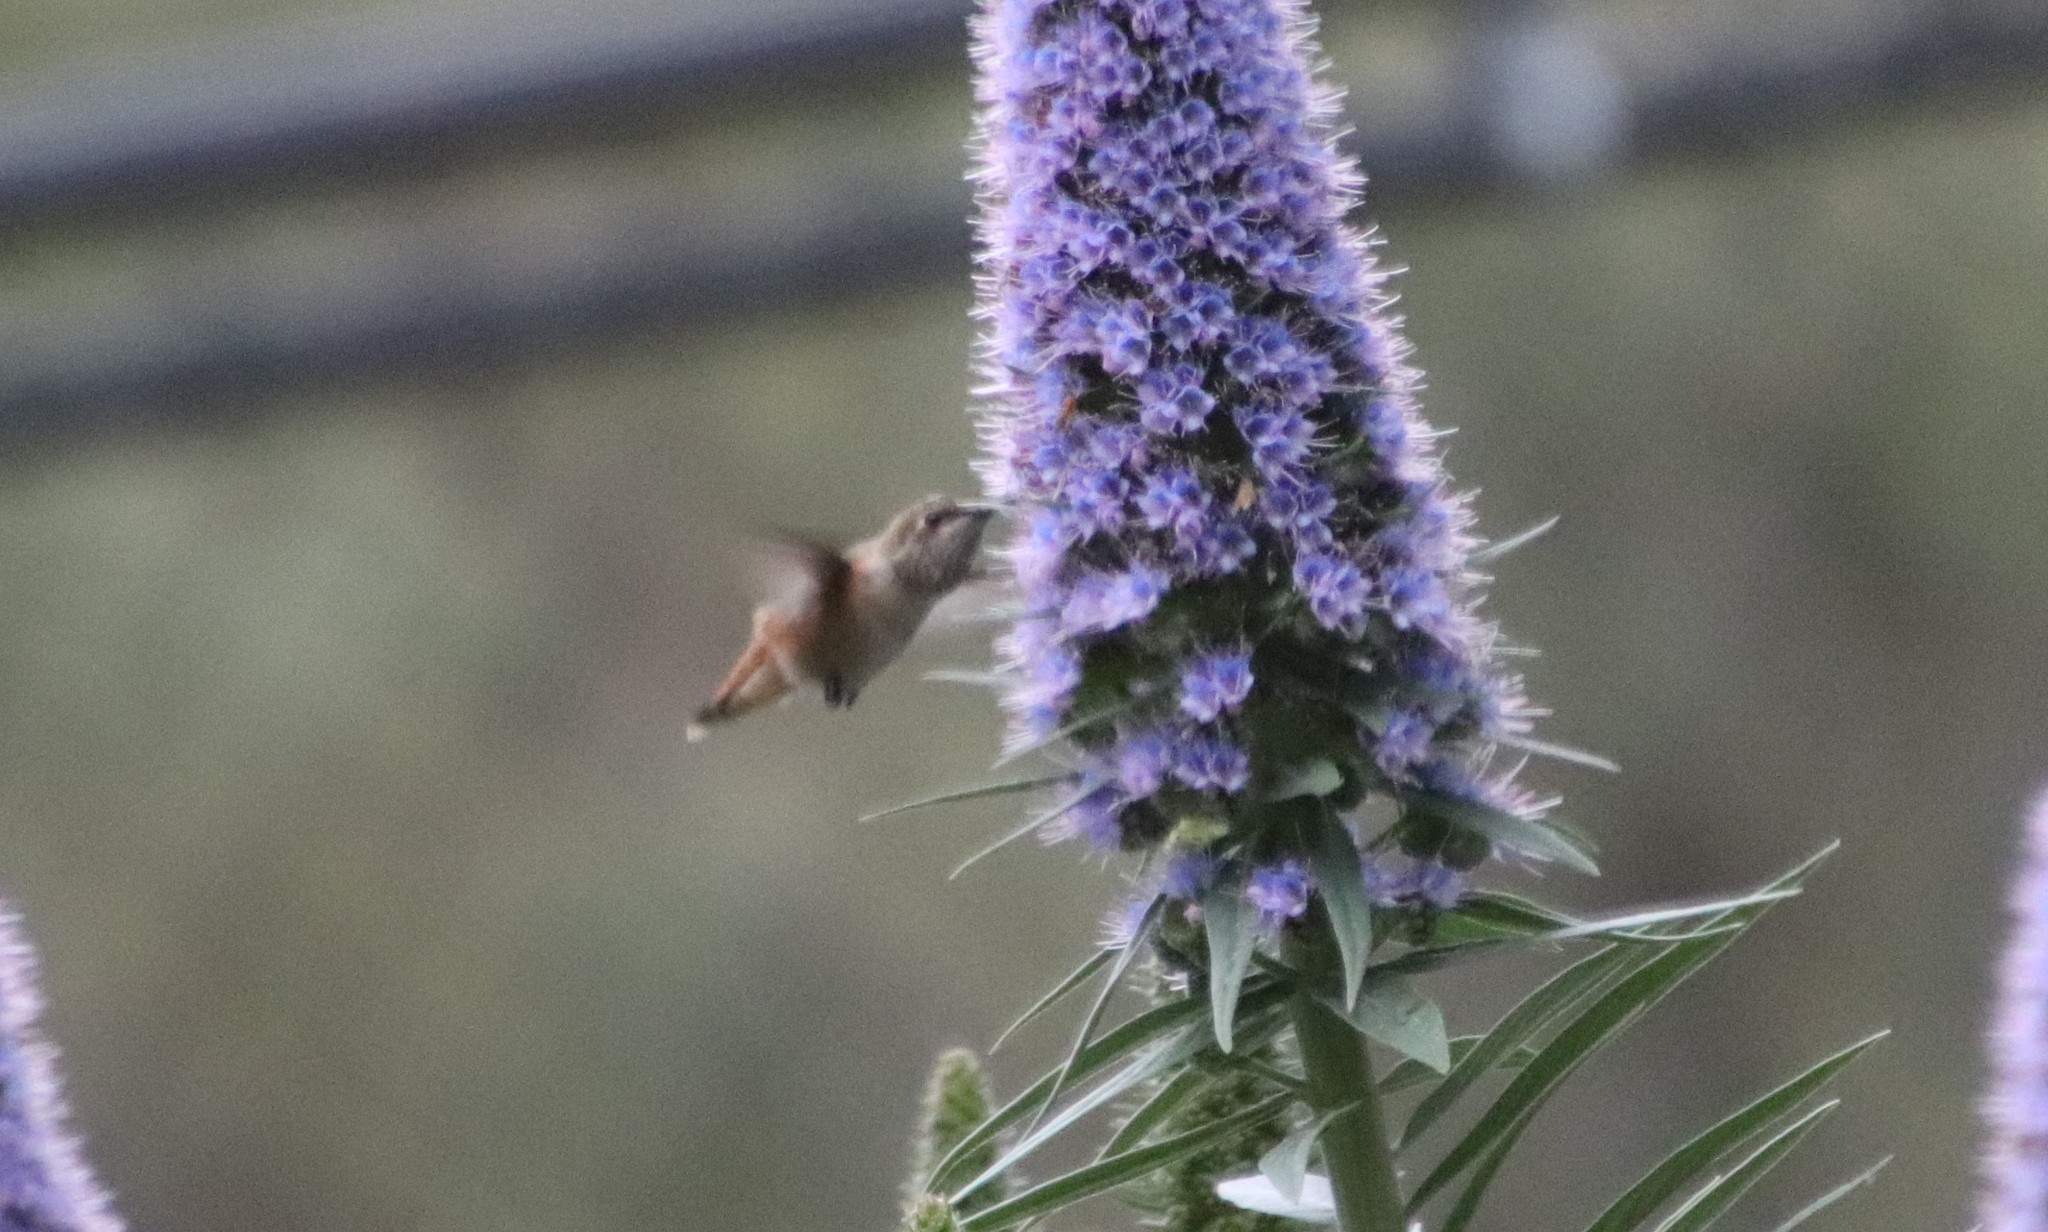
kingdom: Animalia
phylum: Chordata
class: Aves
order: Apodiformes
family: Trochilidae
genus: Selasphorus
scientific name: Selasphorus sasin
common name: Allen's hummingbird
